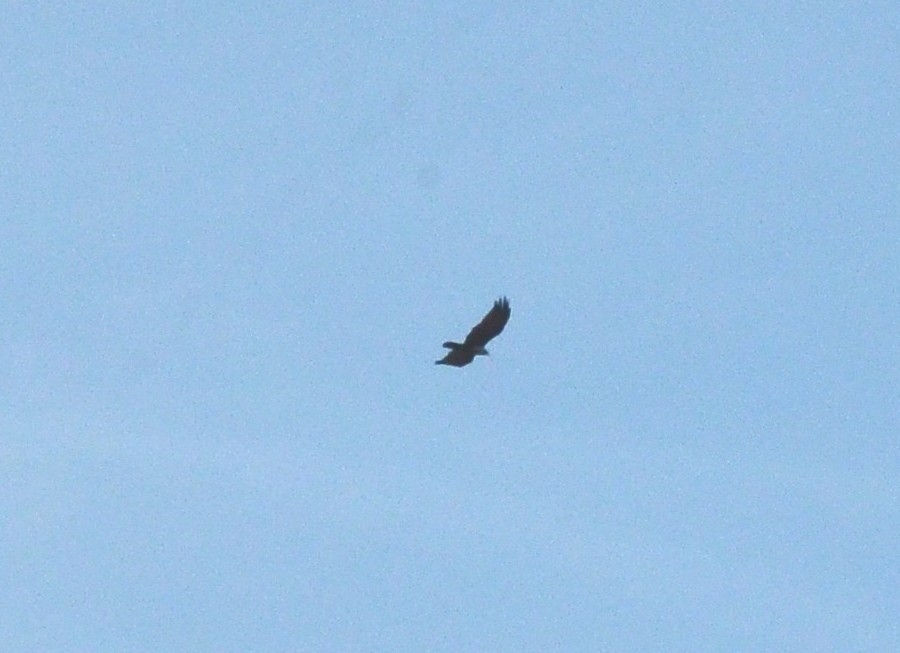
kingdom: Animalia
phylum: Chordata
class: Aves
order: Accipitriformes
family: Accipitridae
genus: Haliastur
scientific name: Haliastur indus
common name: Brahminy kite
